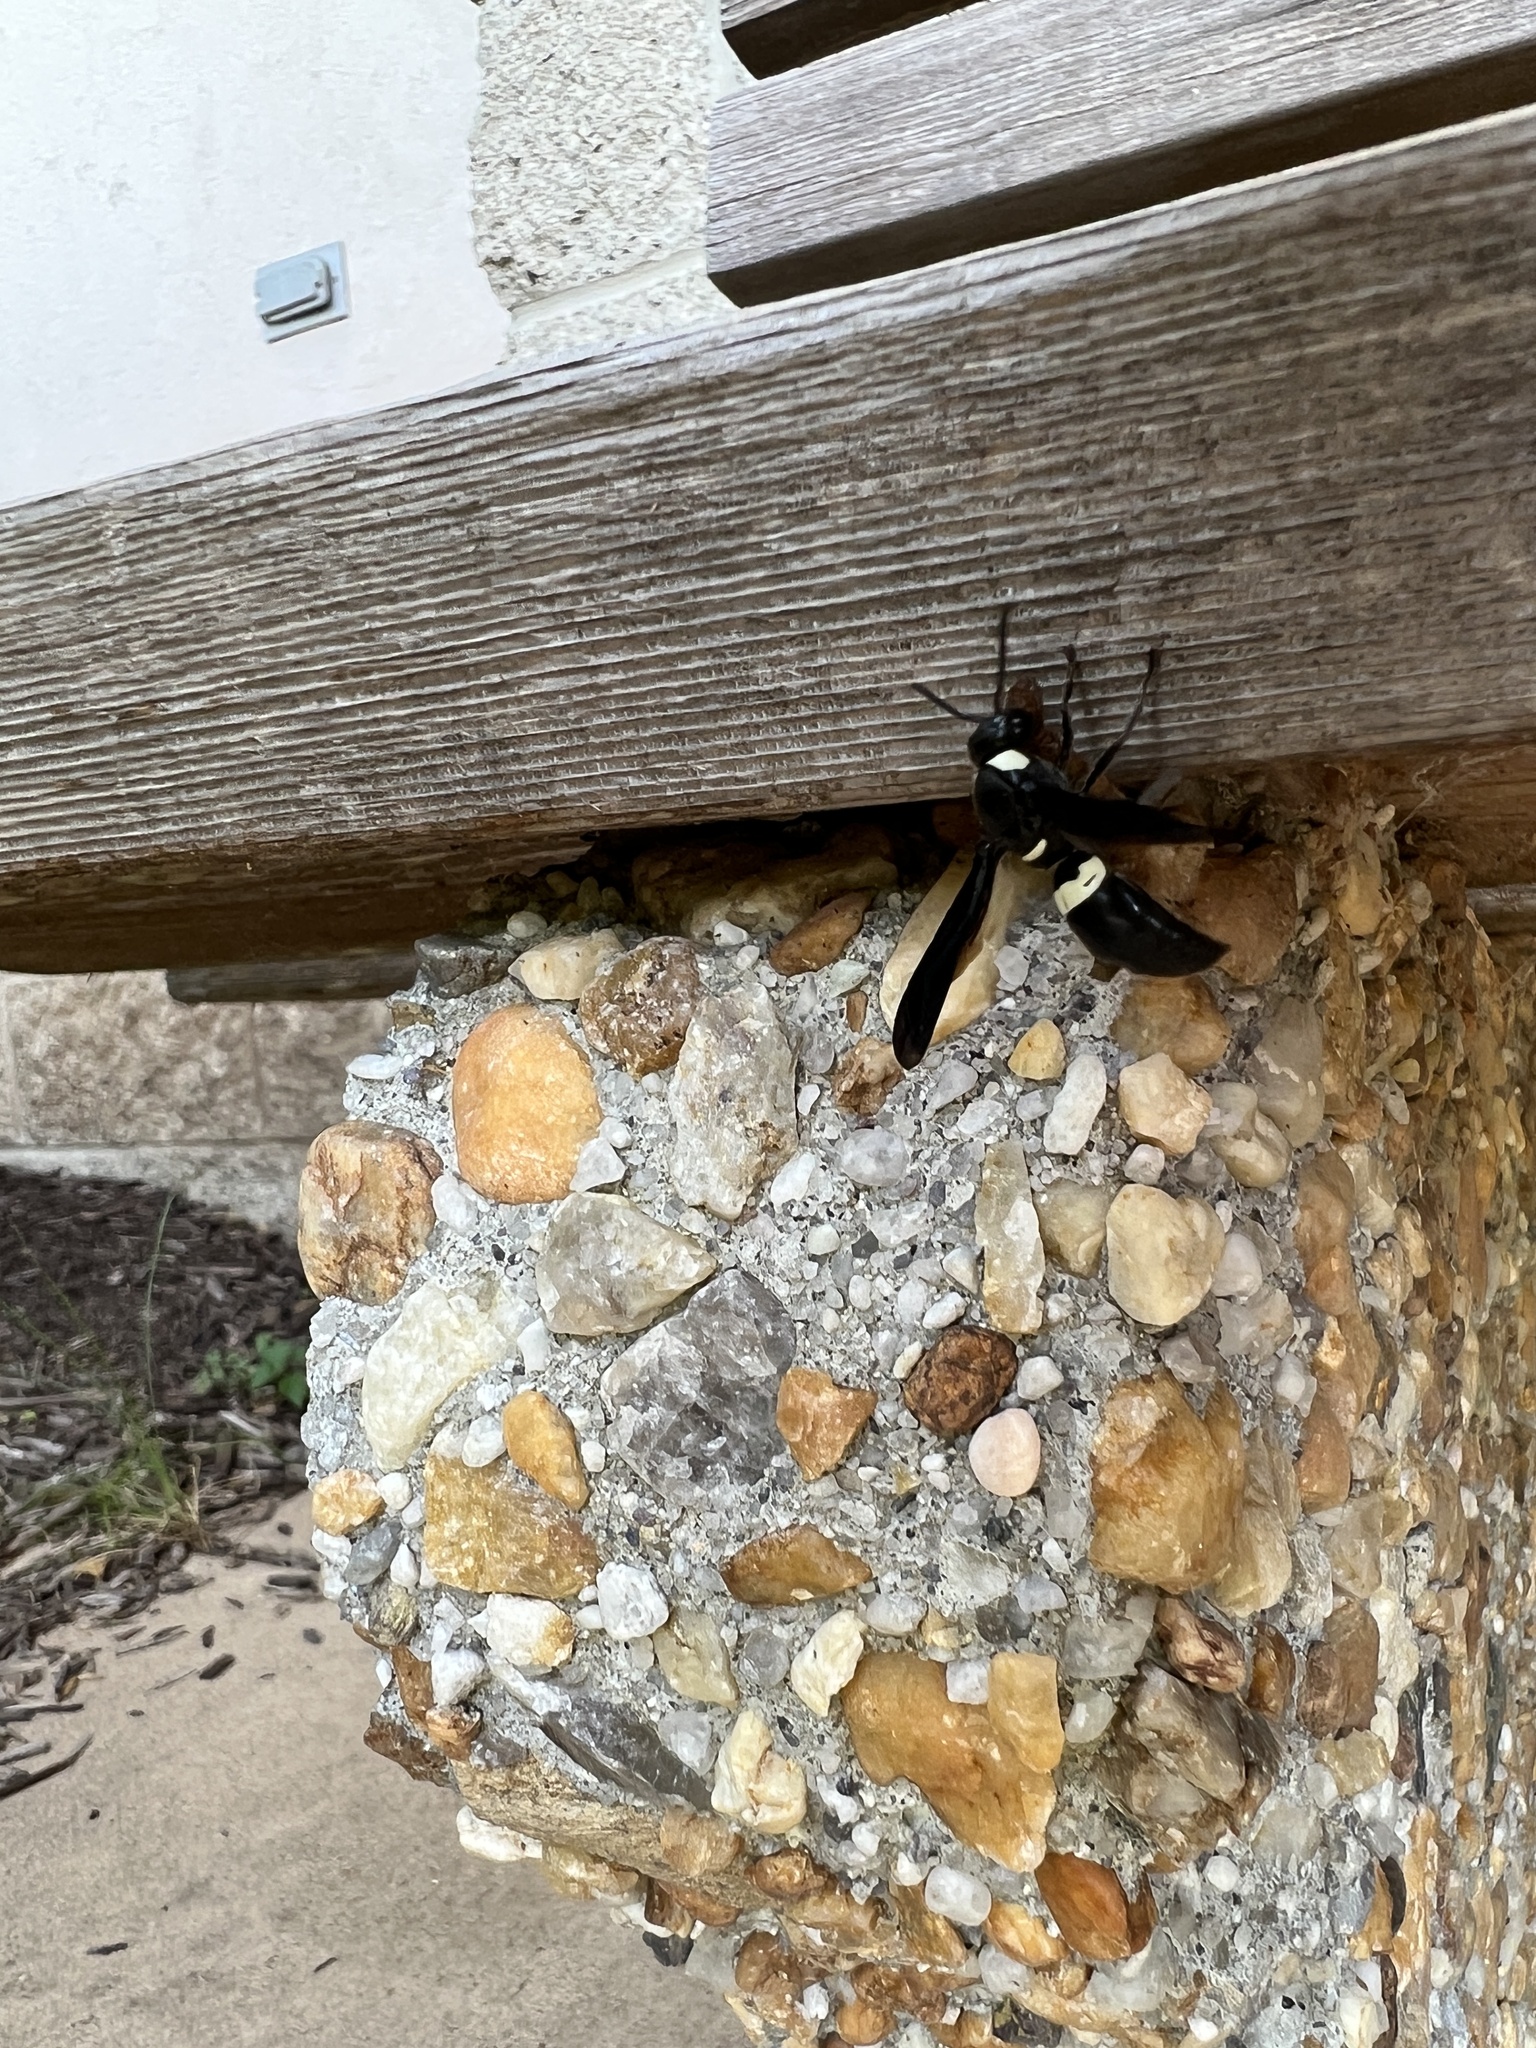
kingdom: Animalia
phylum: Arthropoda
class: Insecta
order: Hymenoptera
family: Eumenidae
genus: Monobia
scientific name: Monobia quadridens
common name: Four-toothed mason wasp
